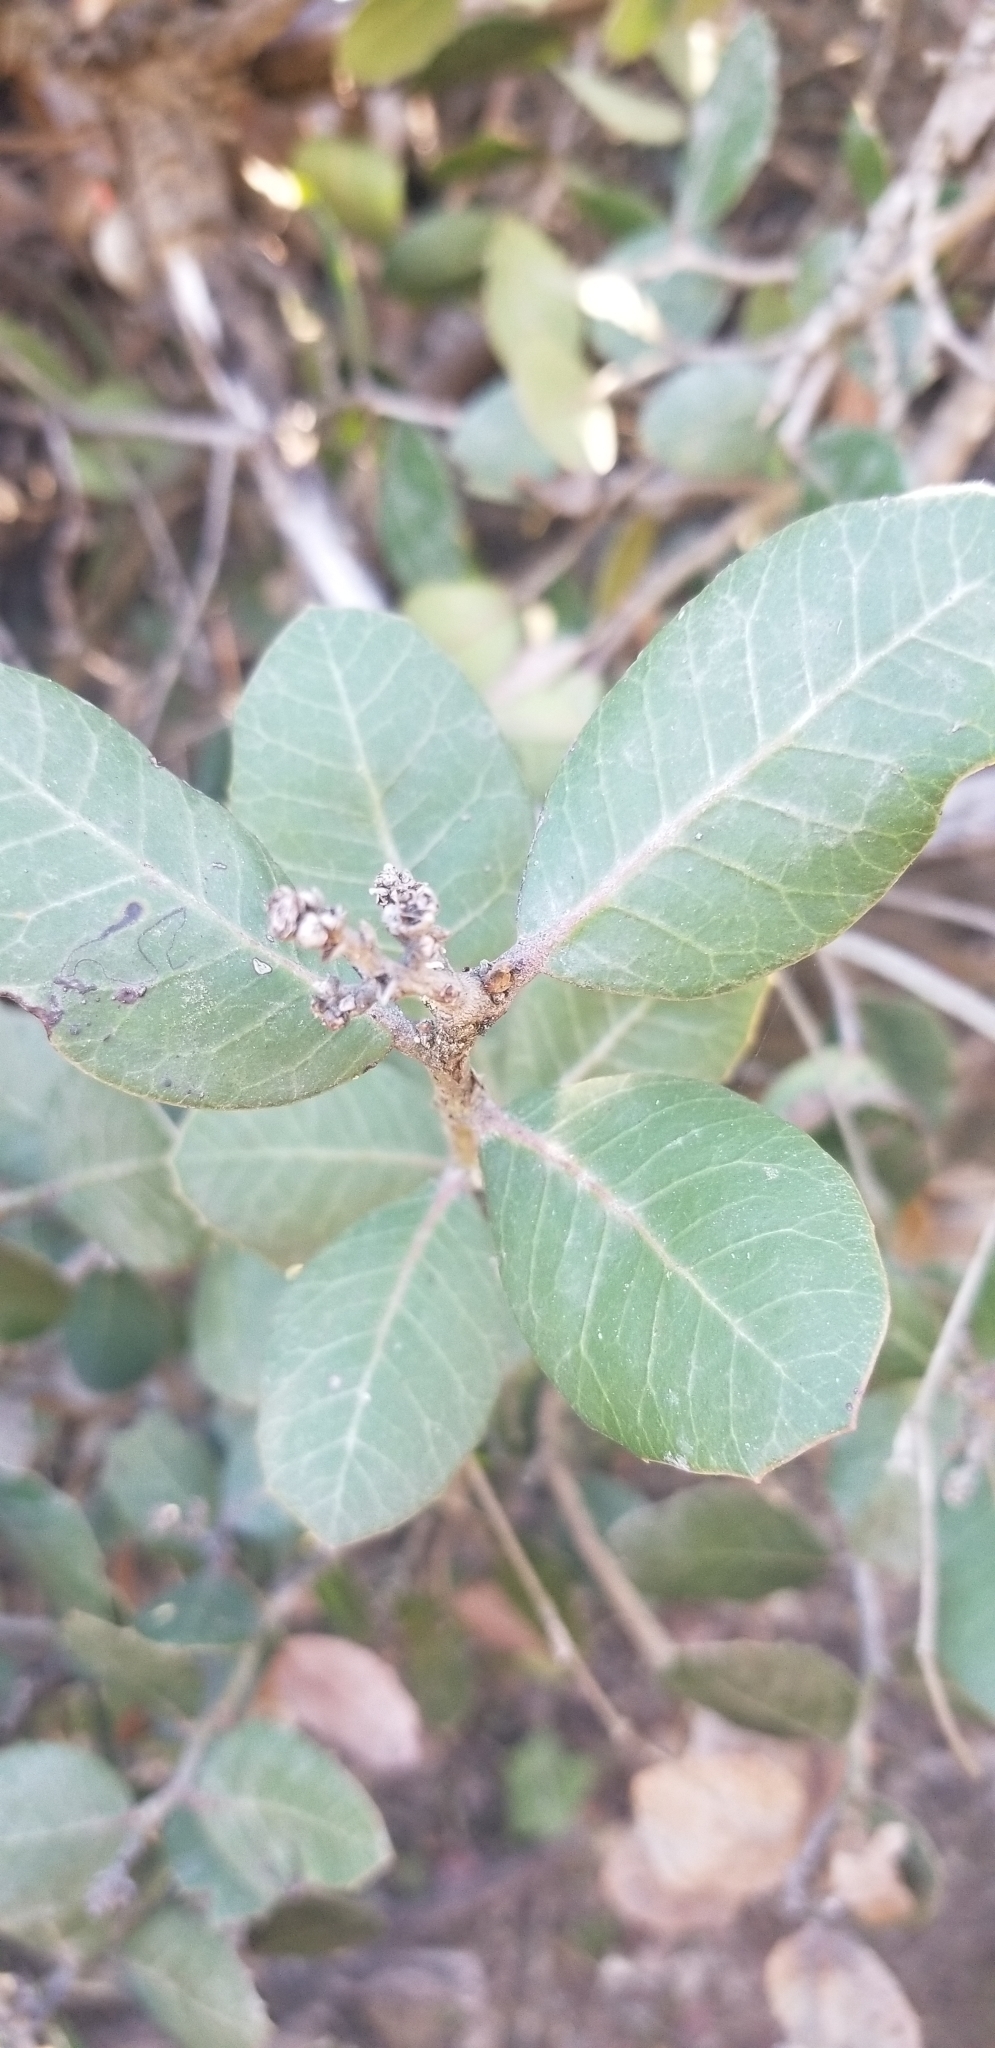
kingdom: Plantae
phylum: Tracheophyta
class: Magnoliopsida
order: Sapindales
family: Anacardiaceae
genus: Rhus
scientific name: Rhus integrifolia
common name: Lemonade sumac
